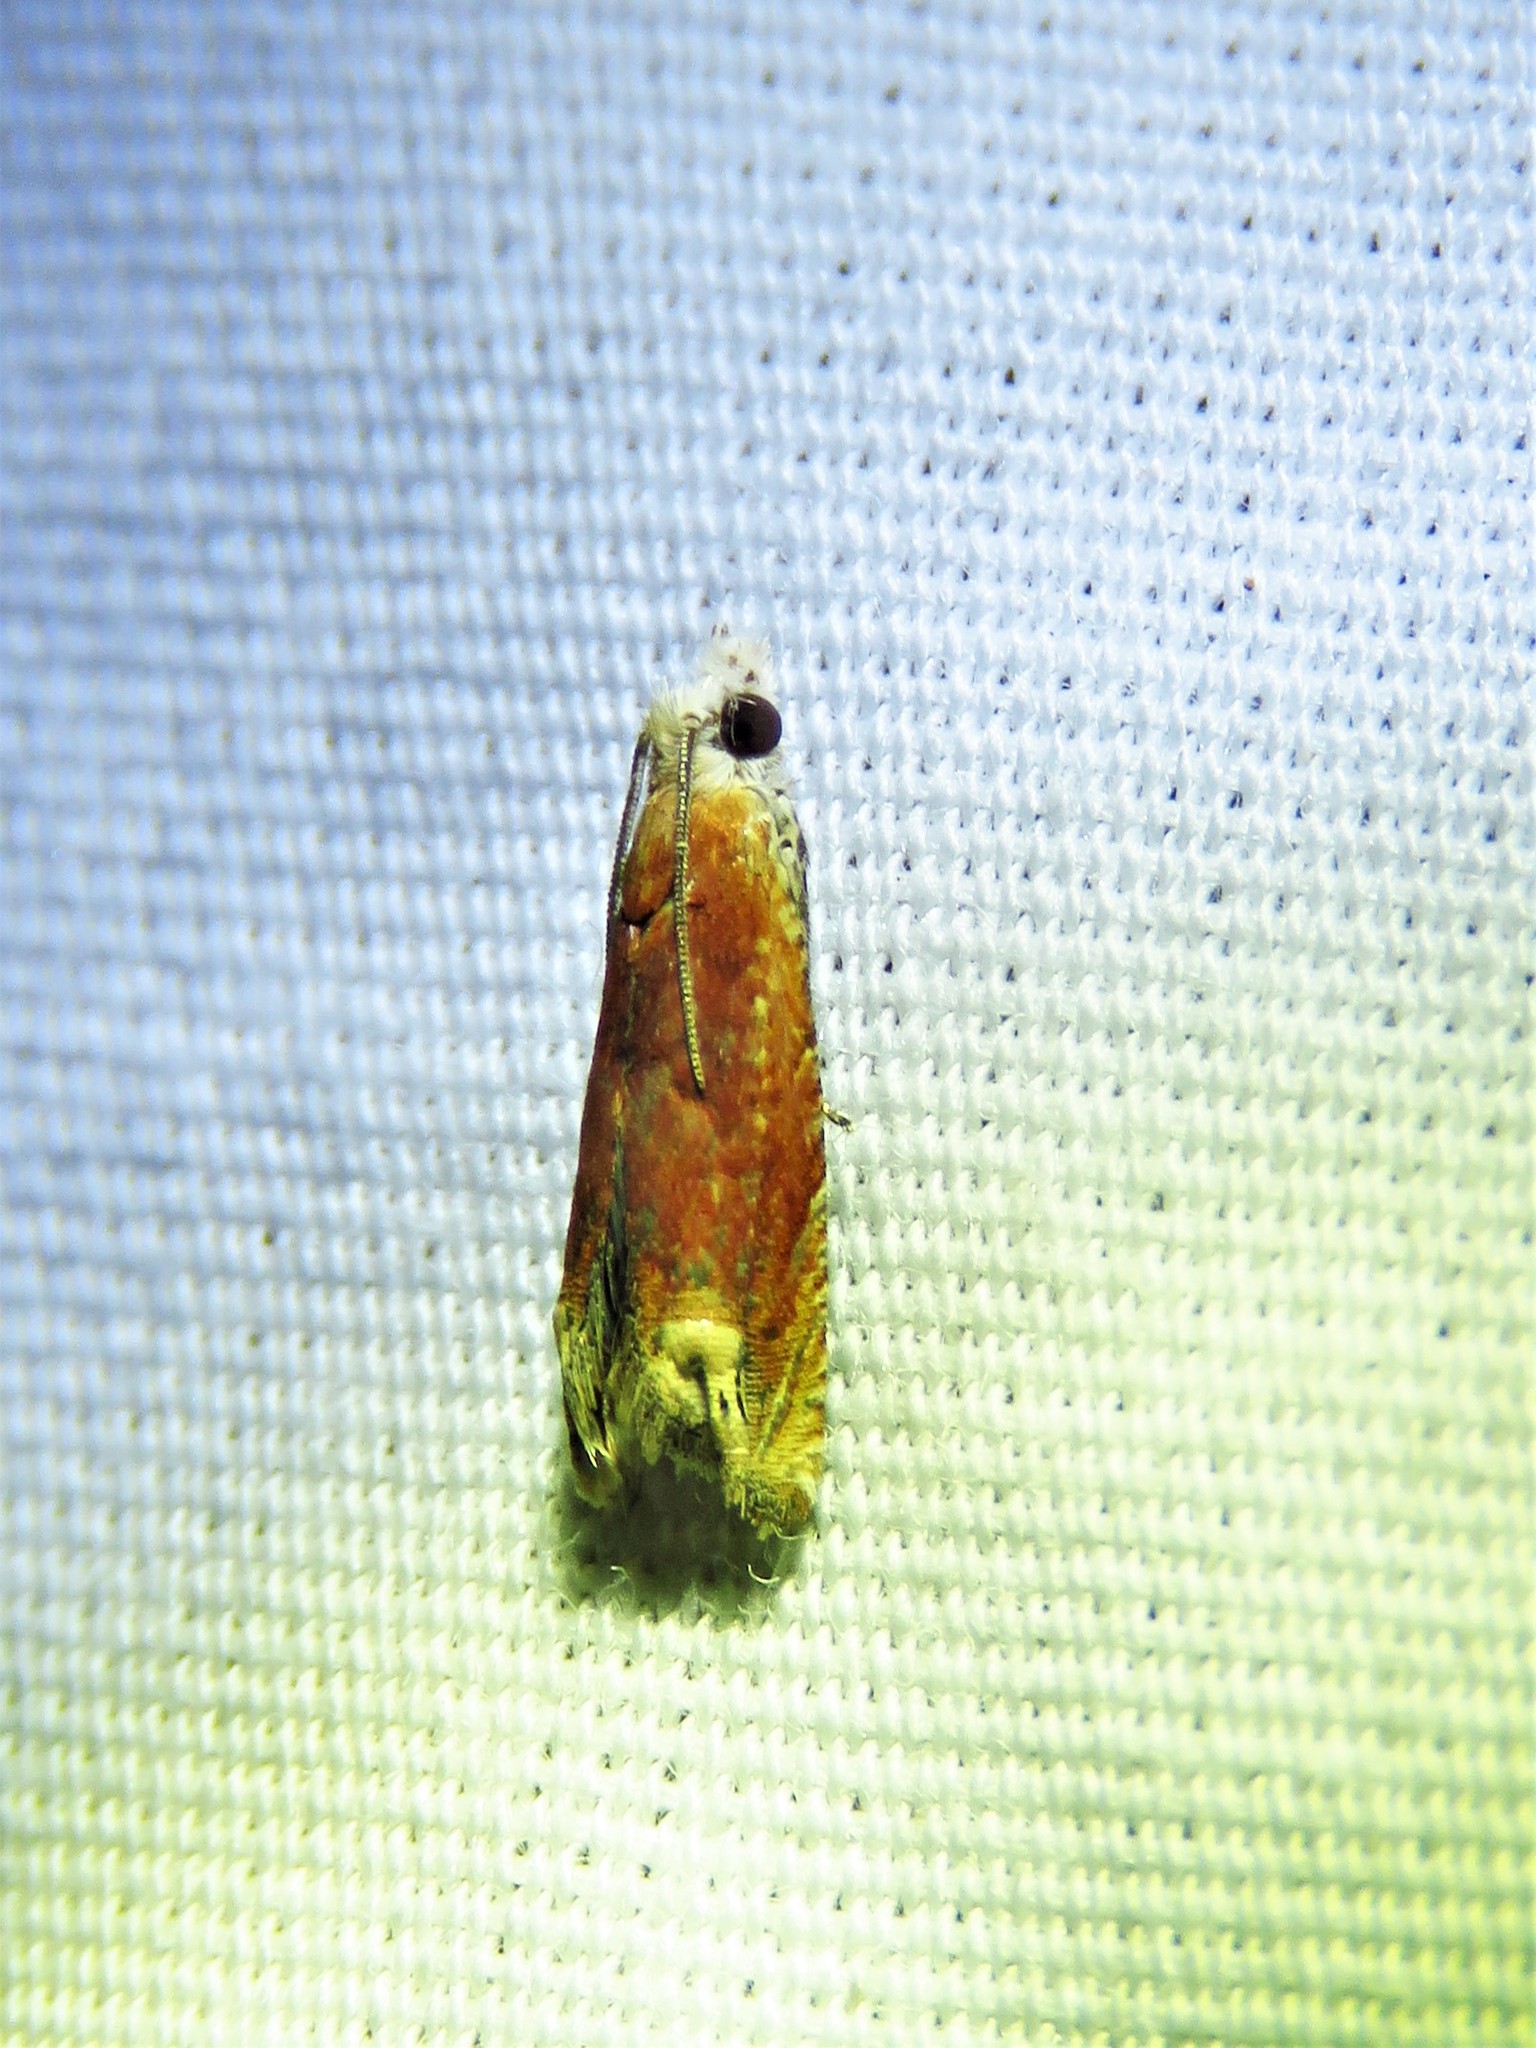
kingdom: Animalia
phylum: Arthropoda
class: Insecta
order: Lepidoptera
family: Tortricidae
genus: Eucosma
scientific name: Eucosma raracana
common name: Reddish eucosma moth
